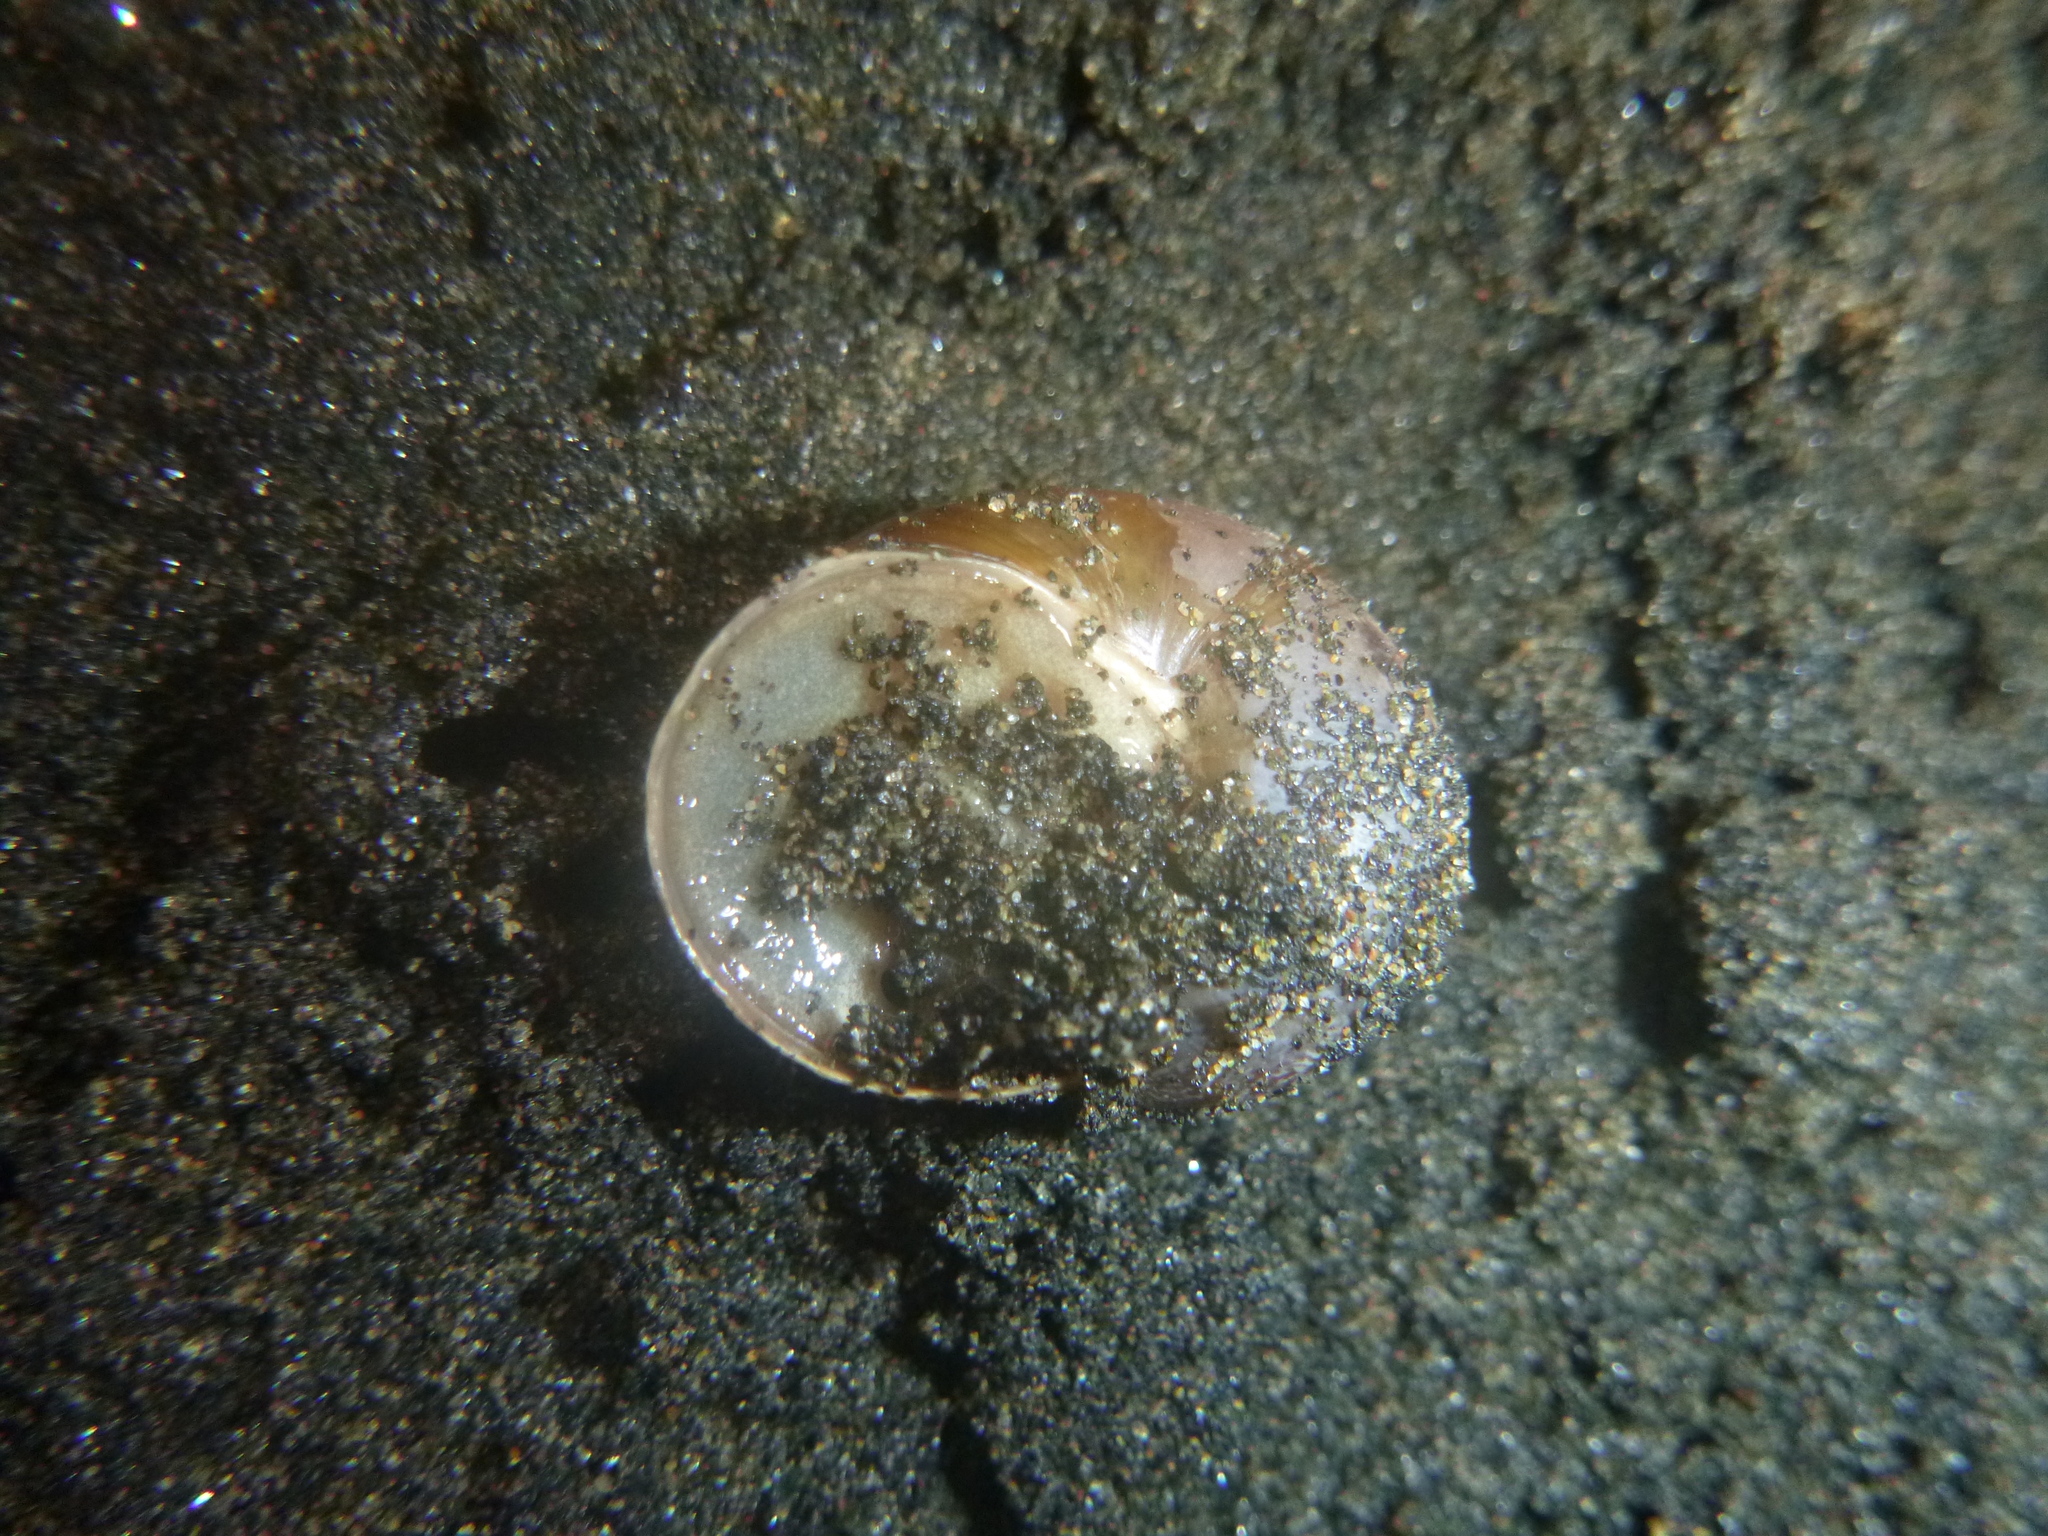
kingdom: Animalia
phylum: Mollusca
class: Gastropoda
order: Stylommatophora
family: Helicidae
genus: Cornu
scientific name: Cornu aspersum
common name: Brown garden snail
